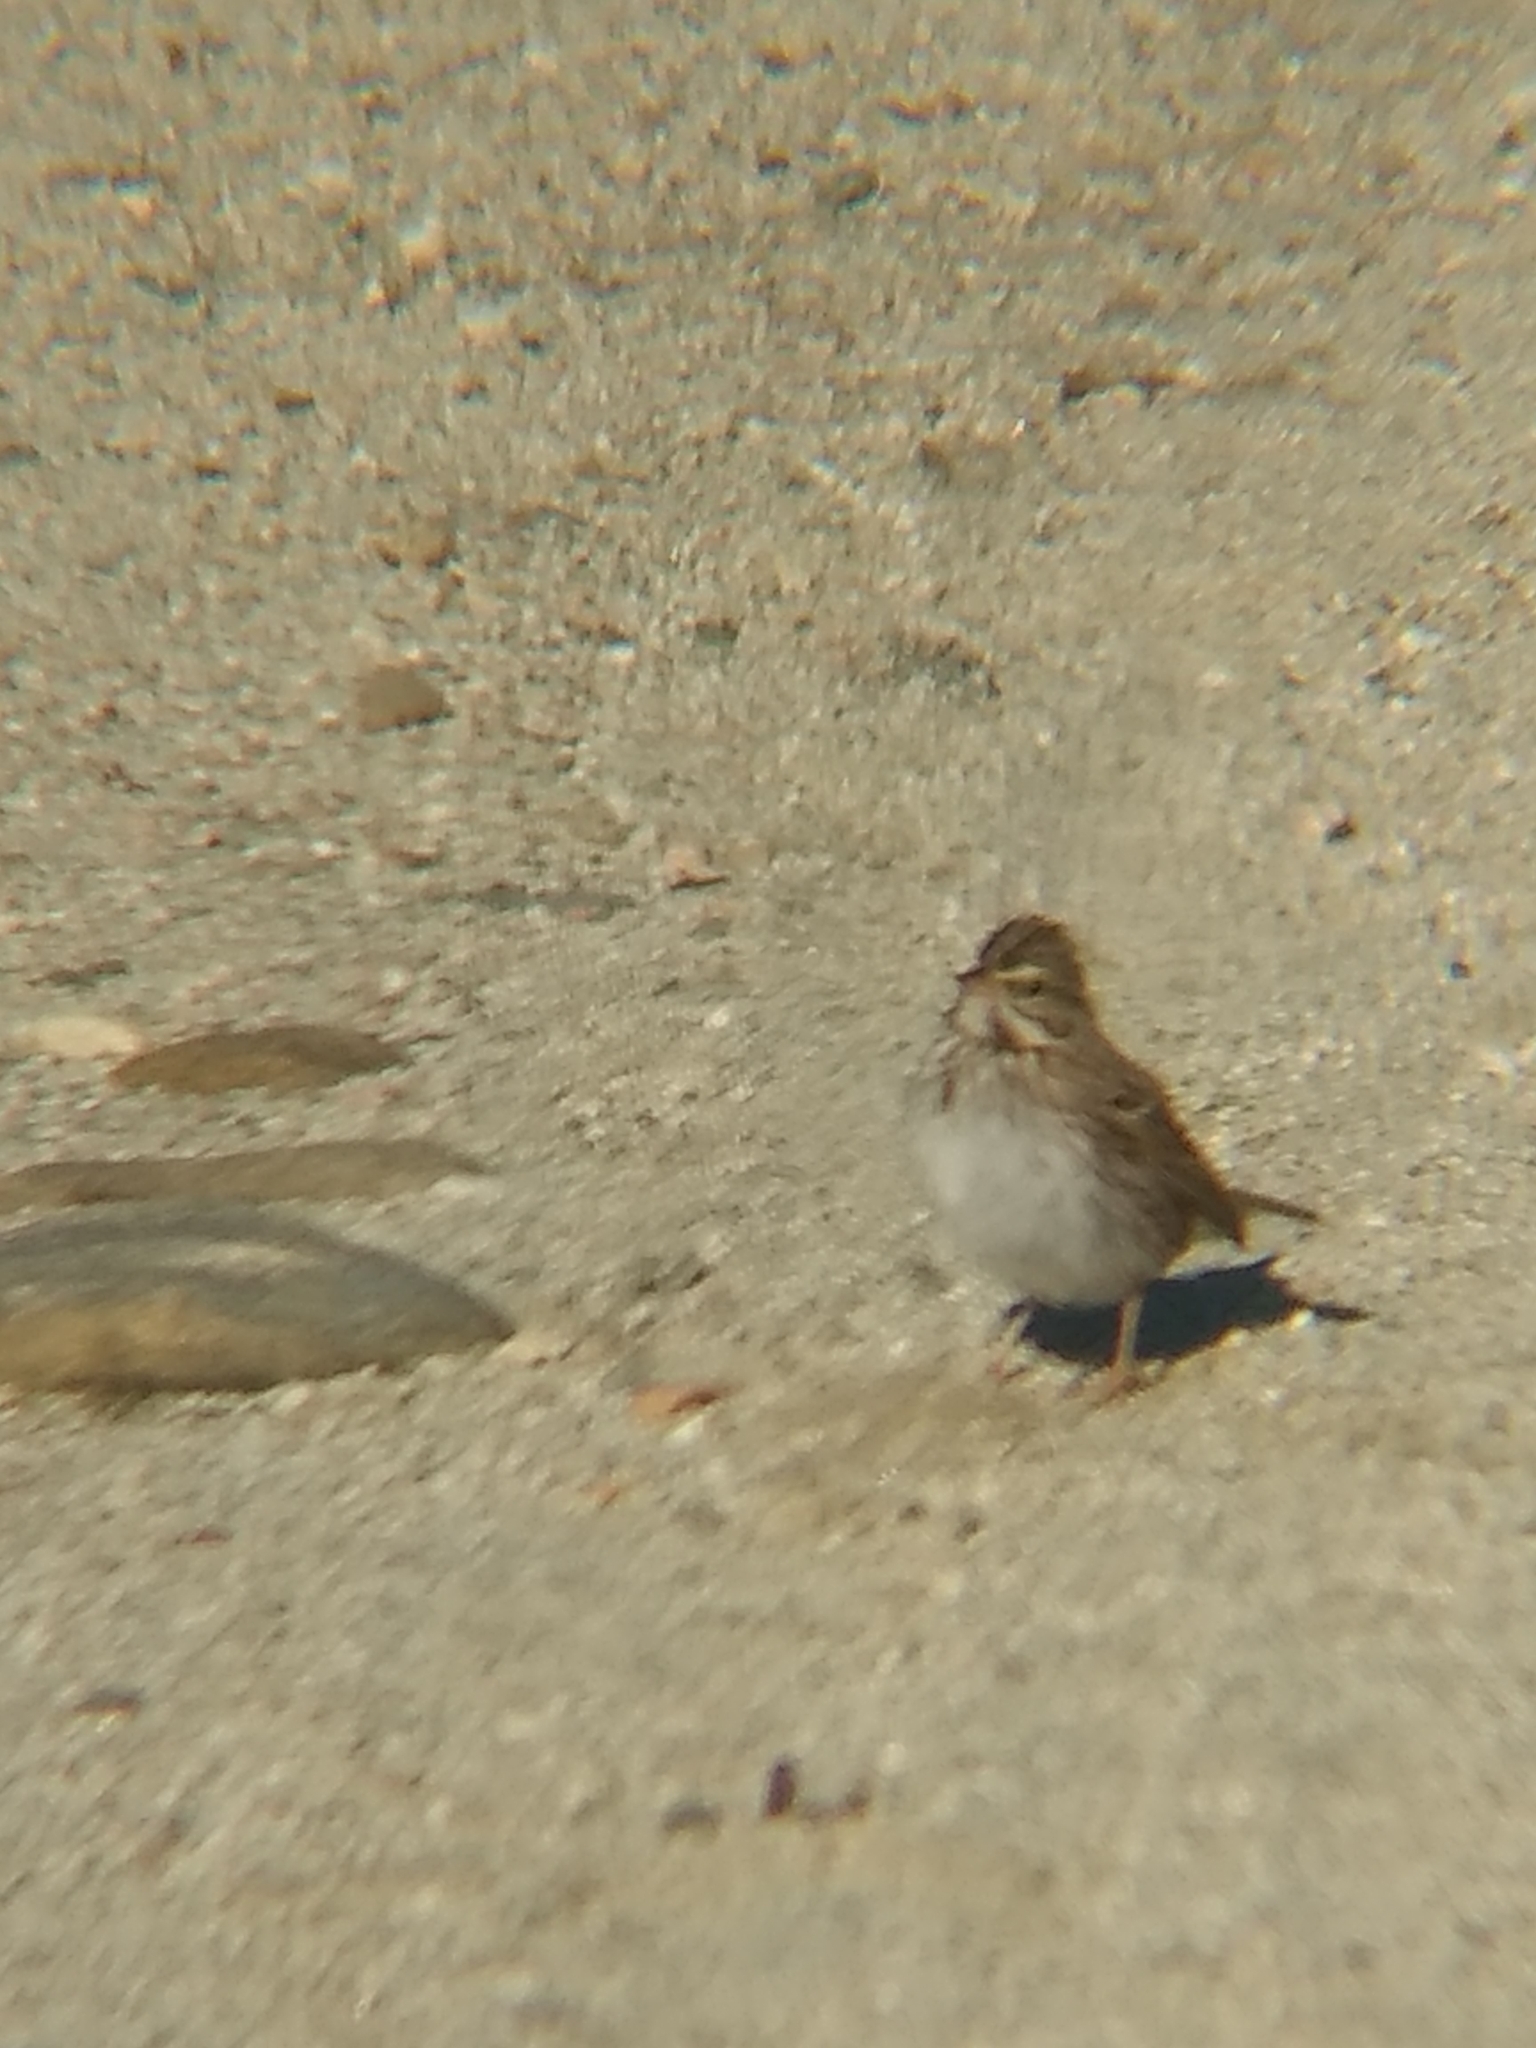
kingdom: Animalia
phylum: Chordata
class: Aves
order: Passeriformes
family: Passerellidae
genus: Passerculus
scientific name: Passerculus sandwichensis
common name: Savannah sparrow
